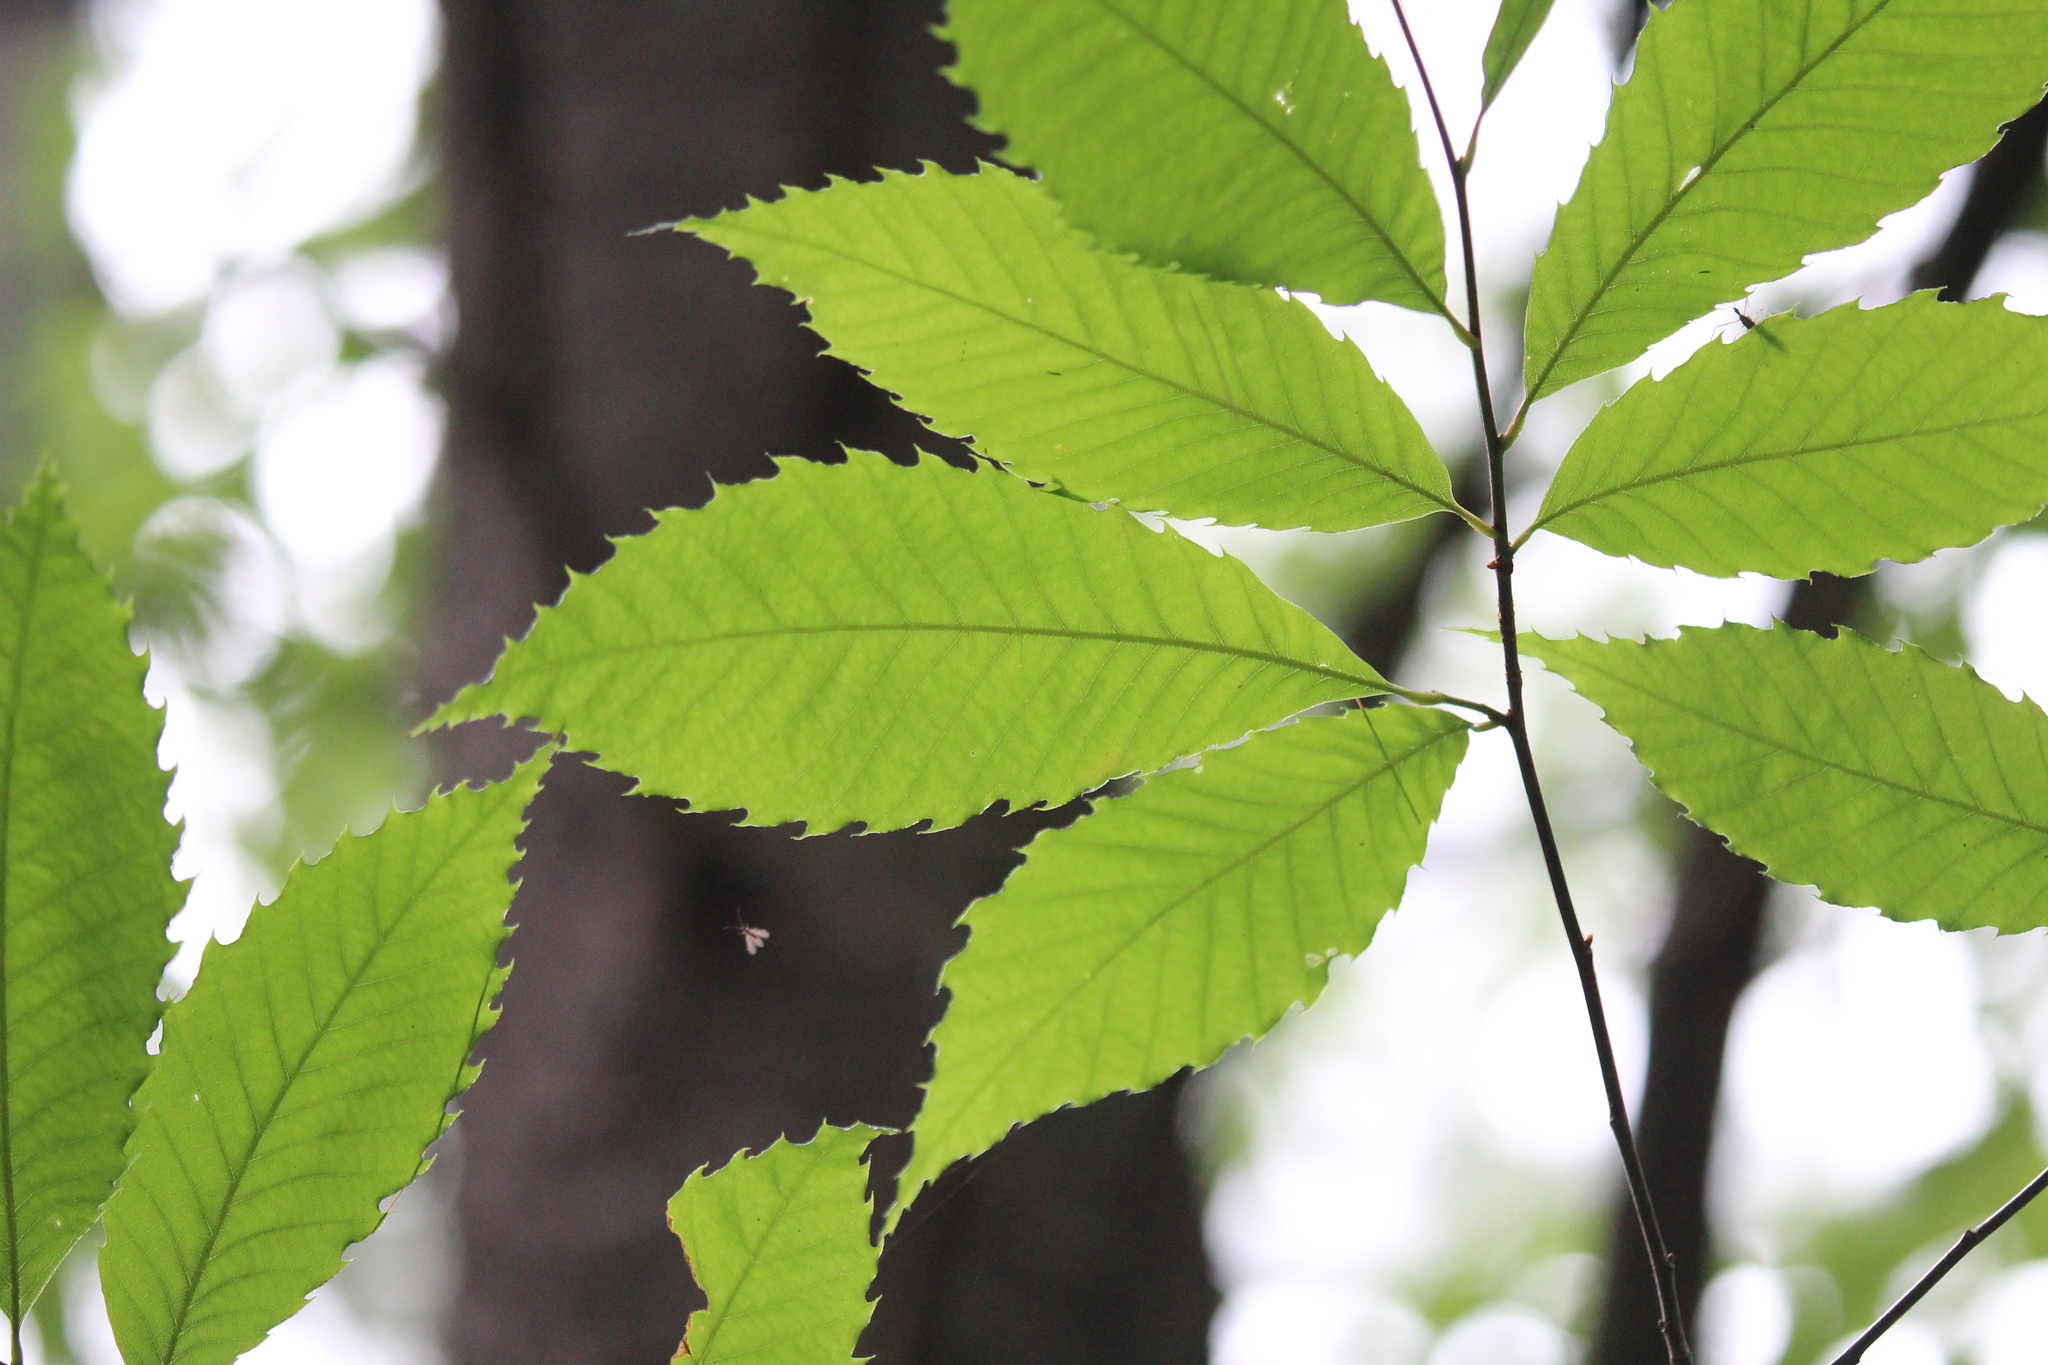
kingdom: Plantae
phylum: Tracheophyta
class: Magnoliopsida
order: Fagales
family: Fagaceae
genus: Castanea
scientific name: Castanea dentata
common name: American chestnut
